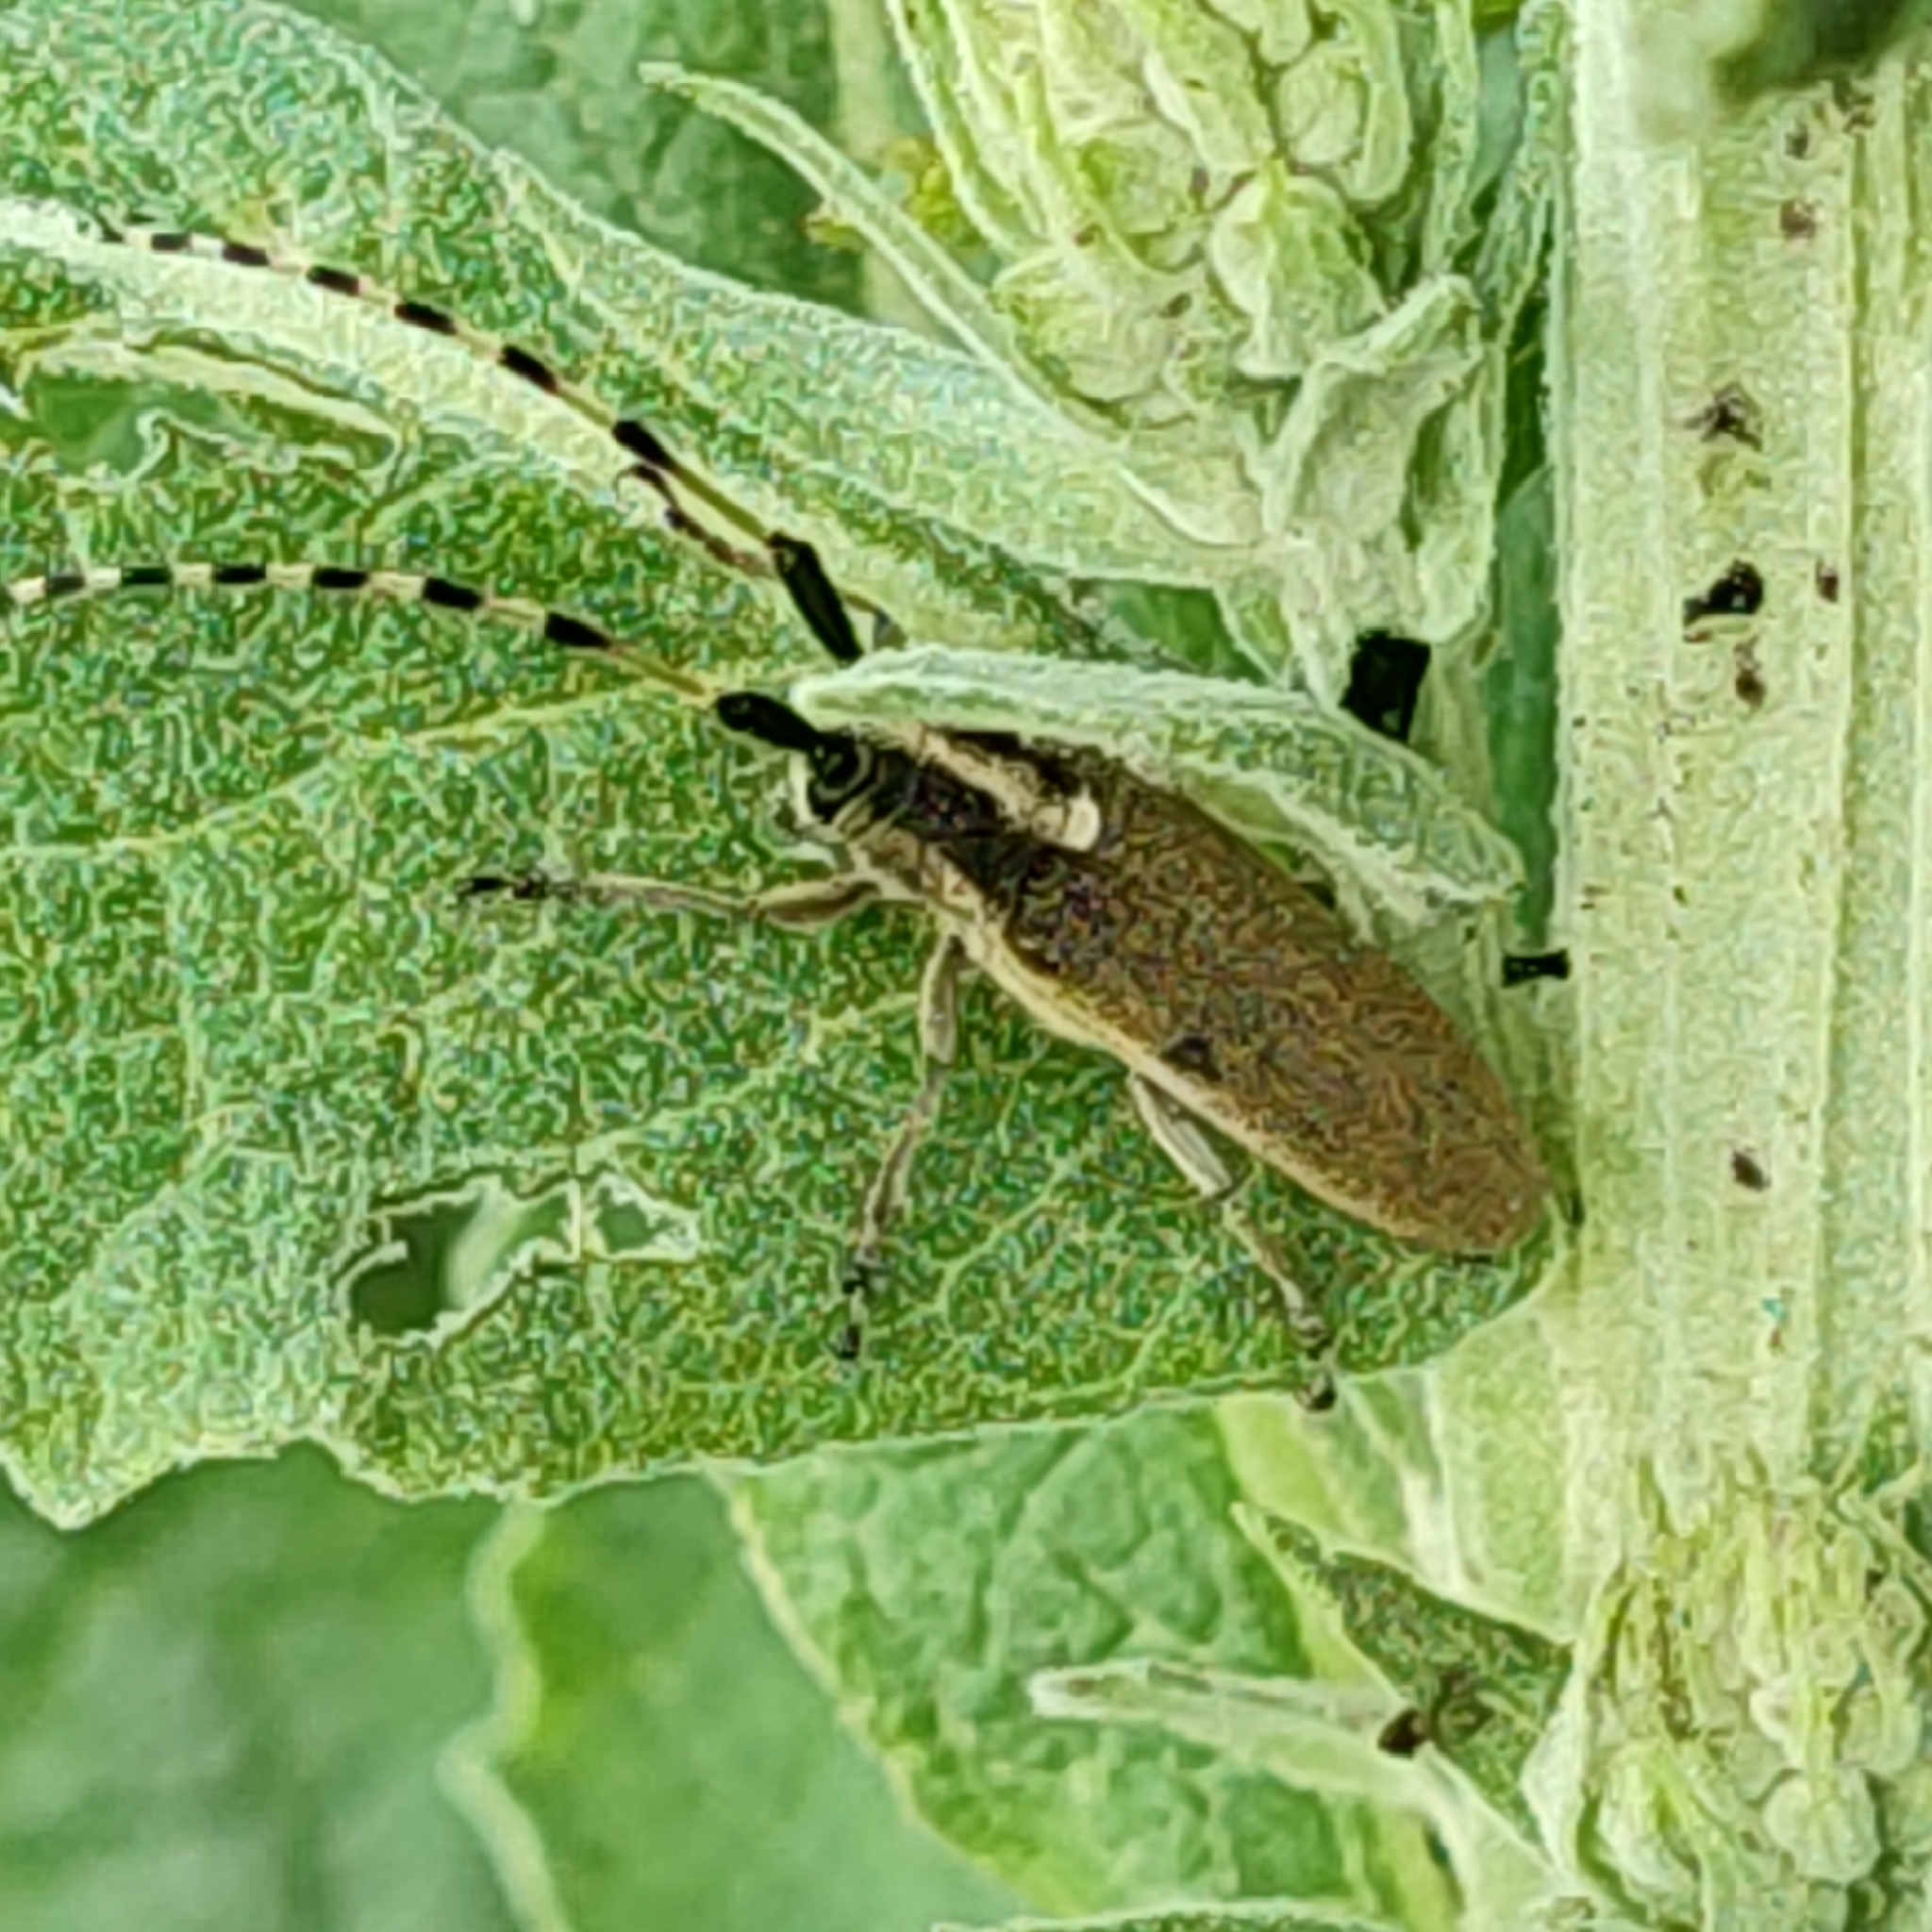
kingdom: Animalia
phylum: Arthropoda
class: Insecta
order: Coleoptera
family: Cerambycidae
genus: Agapanthia
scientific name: Agapanthia kirbyi
